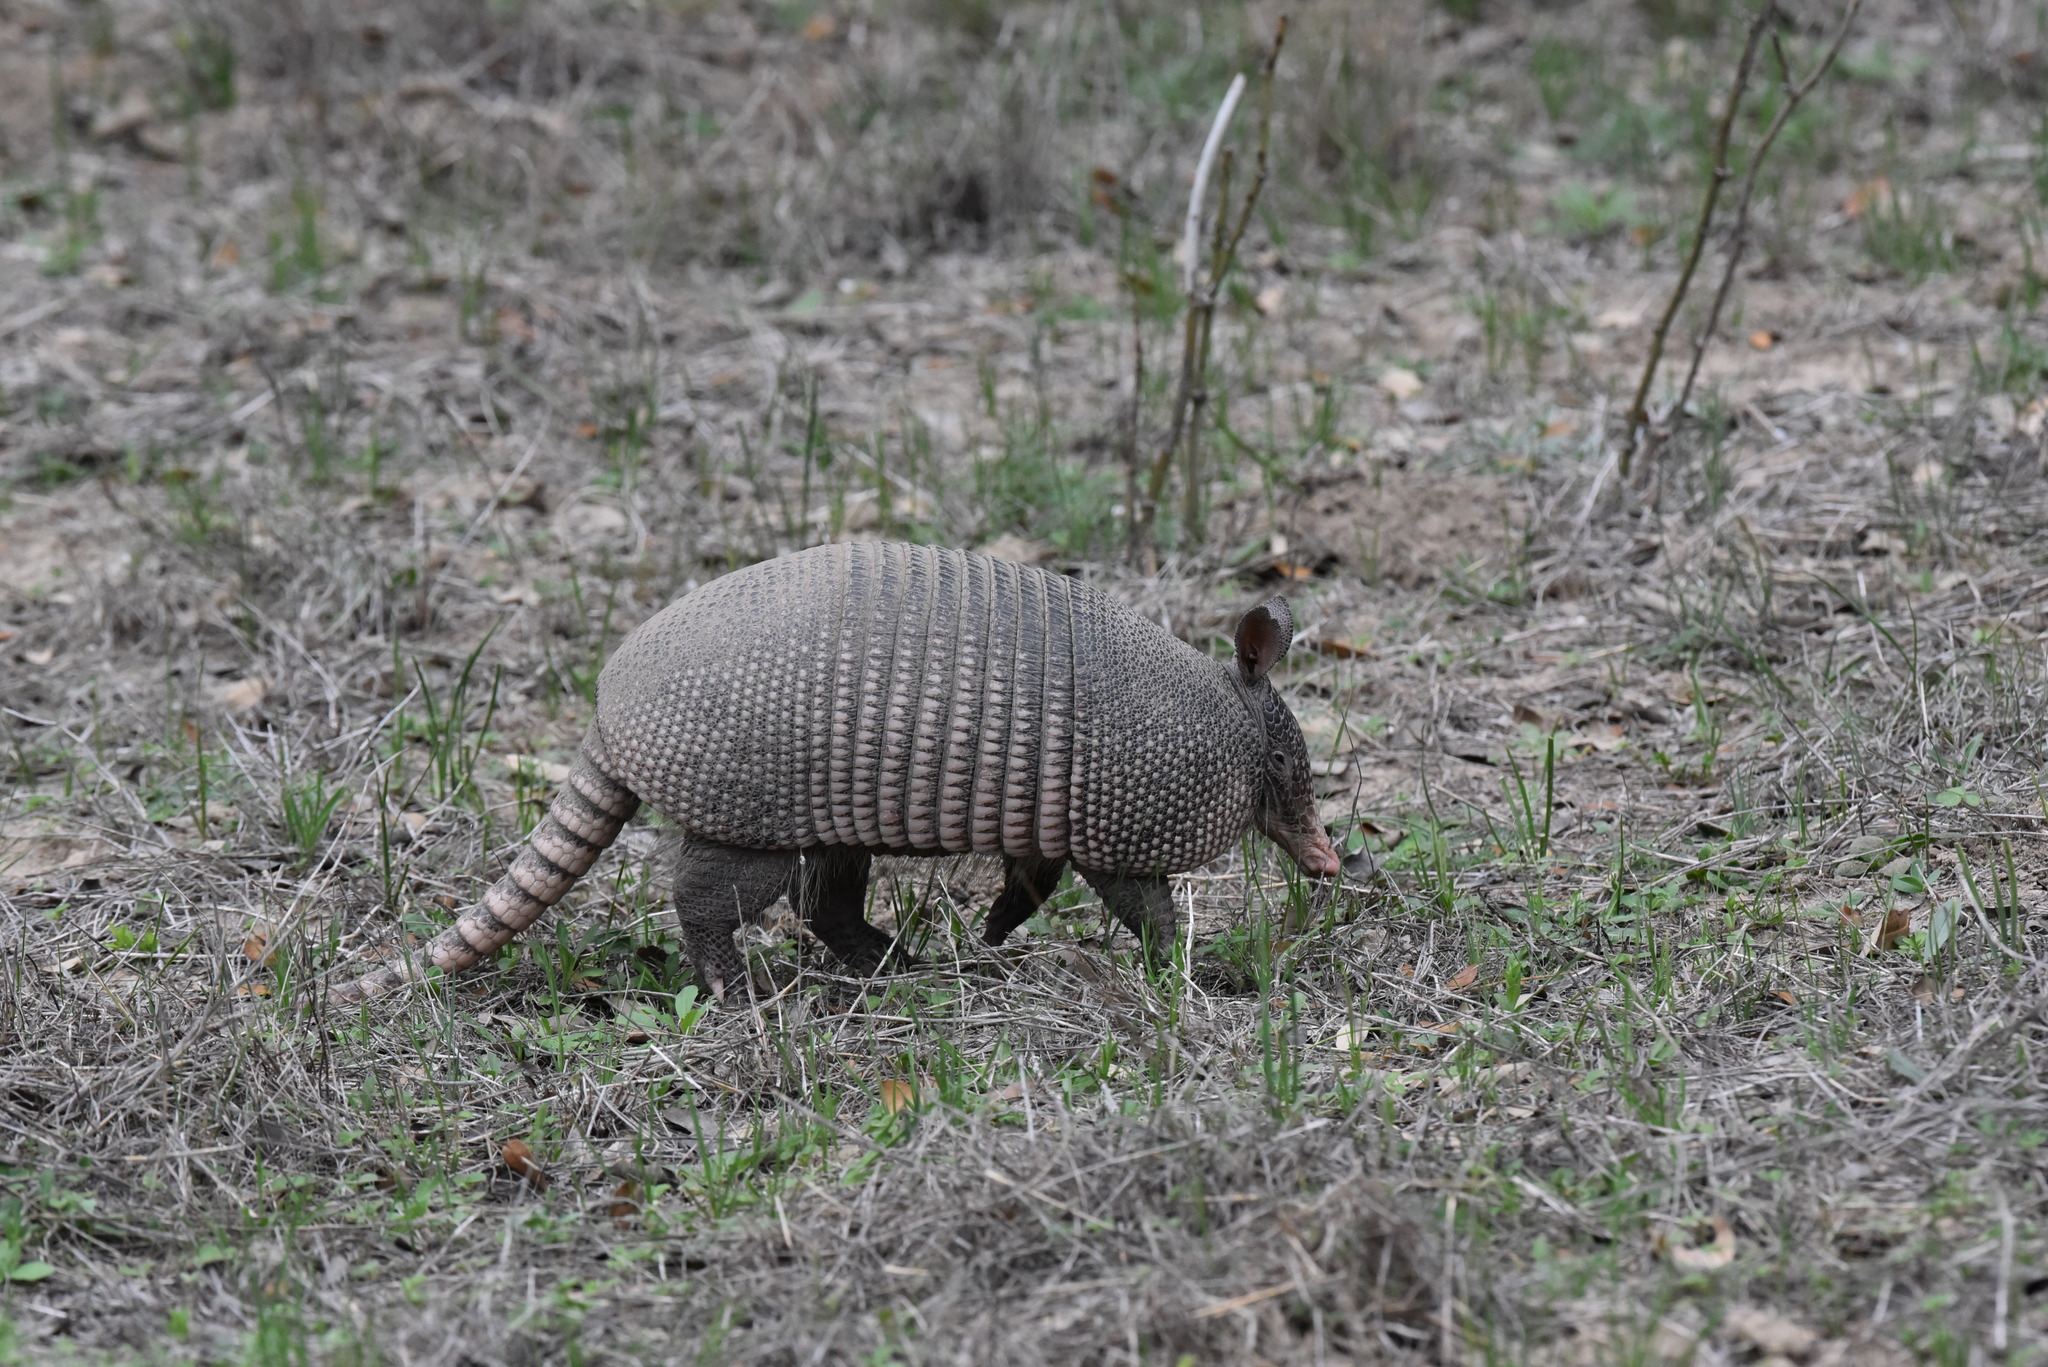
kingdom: Animalia
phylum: Chordata
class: Mammalia
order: Cingulata
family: Dasypodidae
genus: Dasypus
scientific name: Dasypus novemcinctus
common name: Nine-banded armadillo
